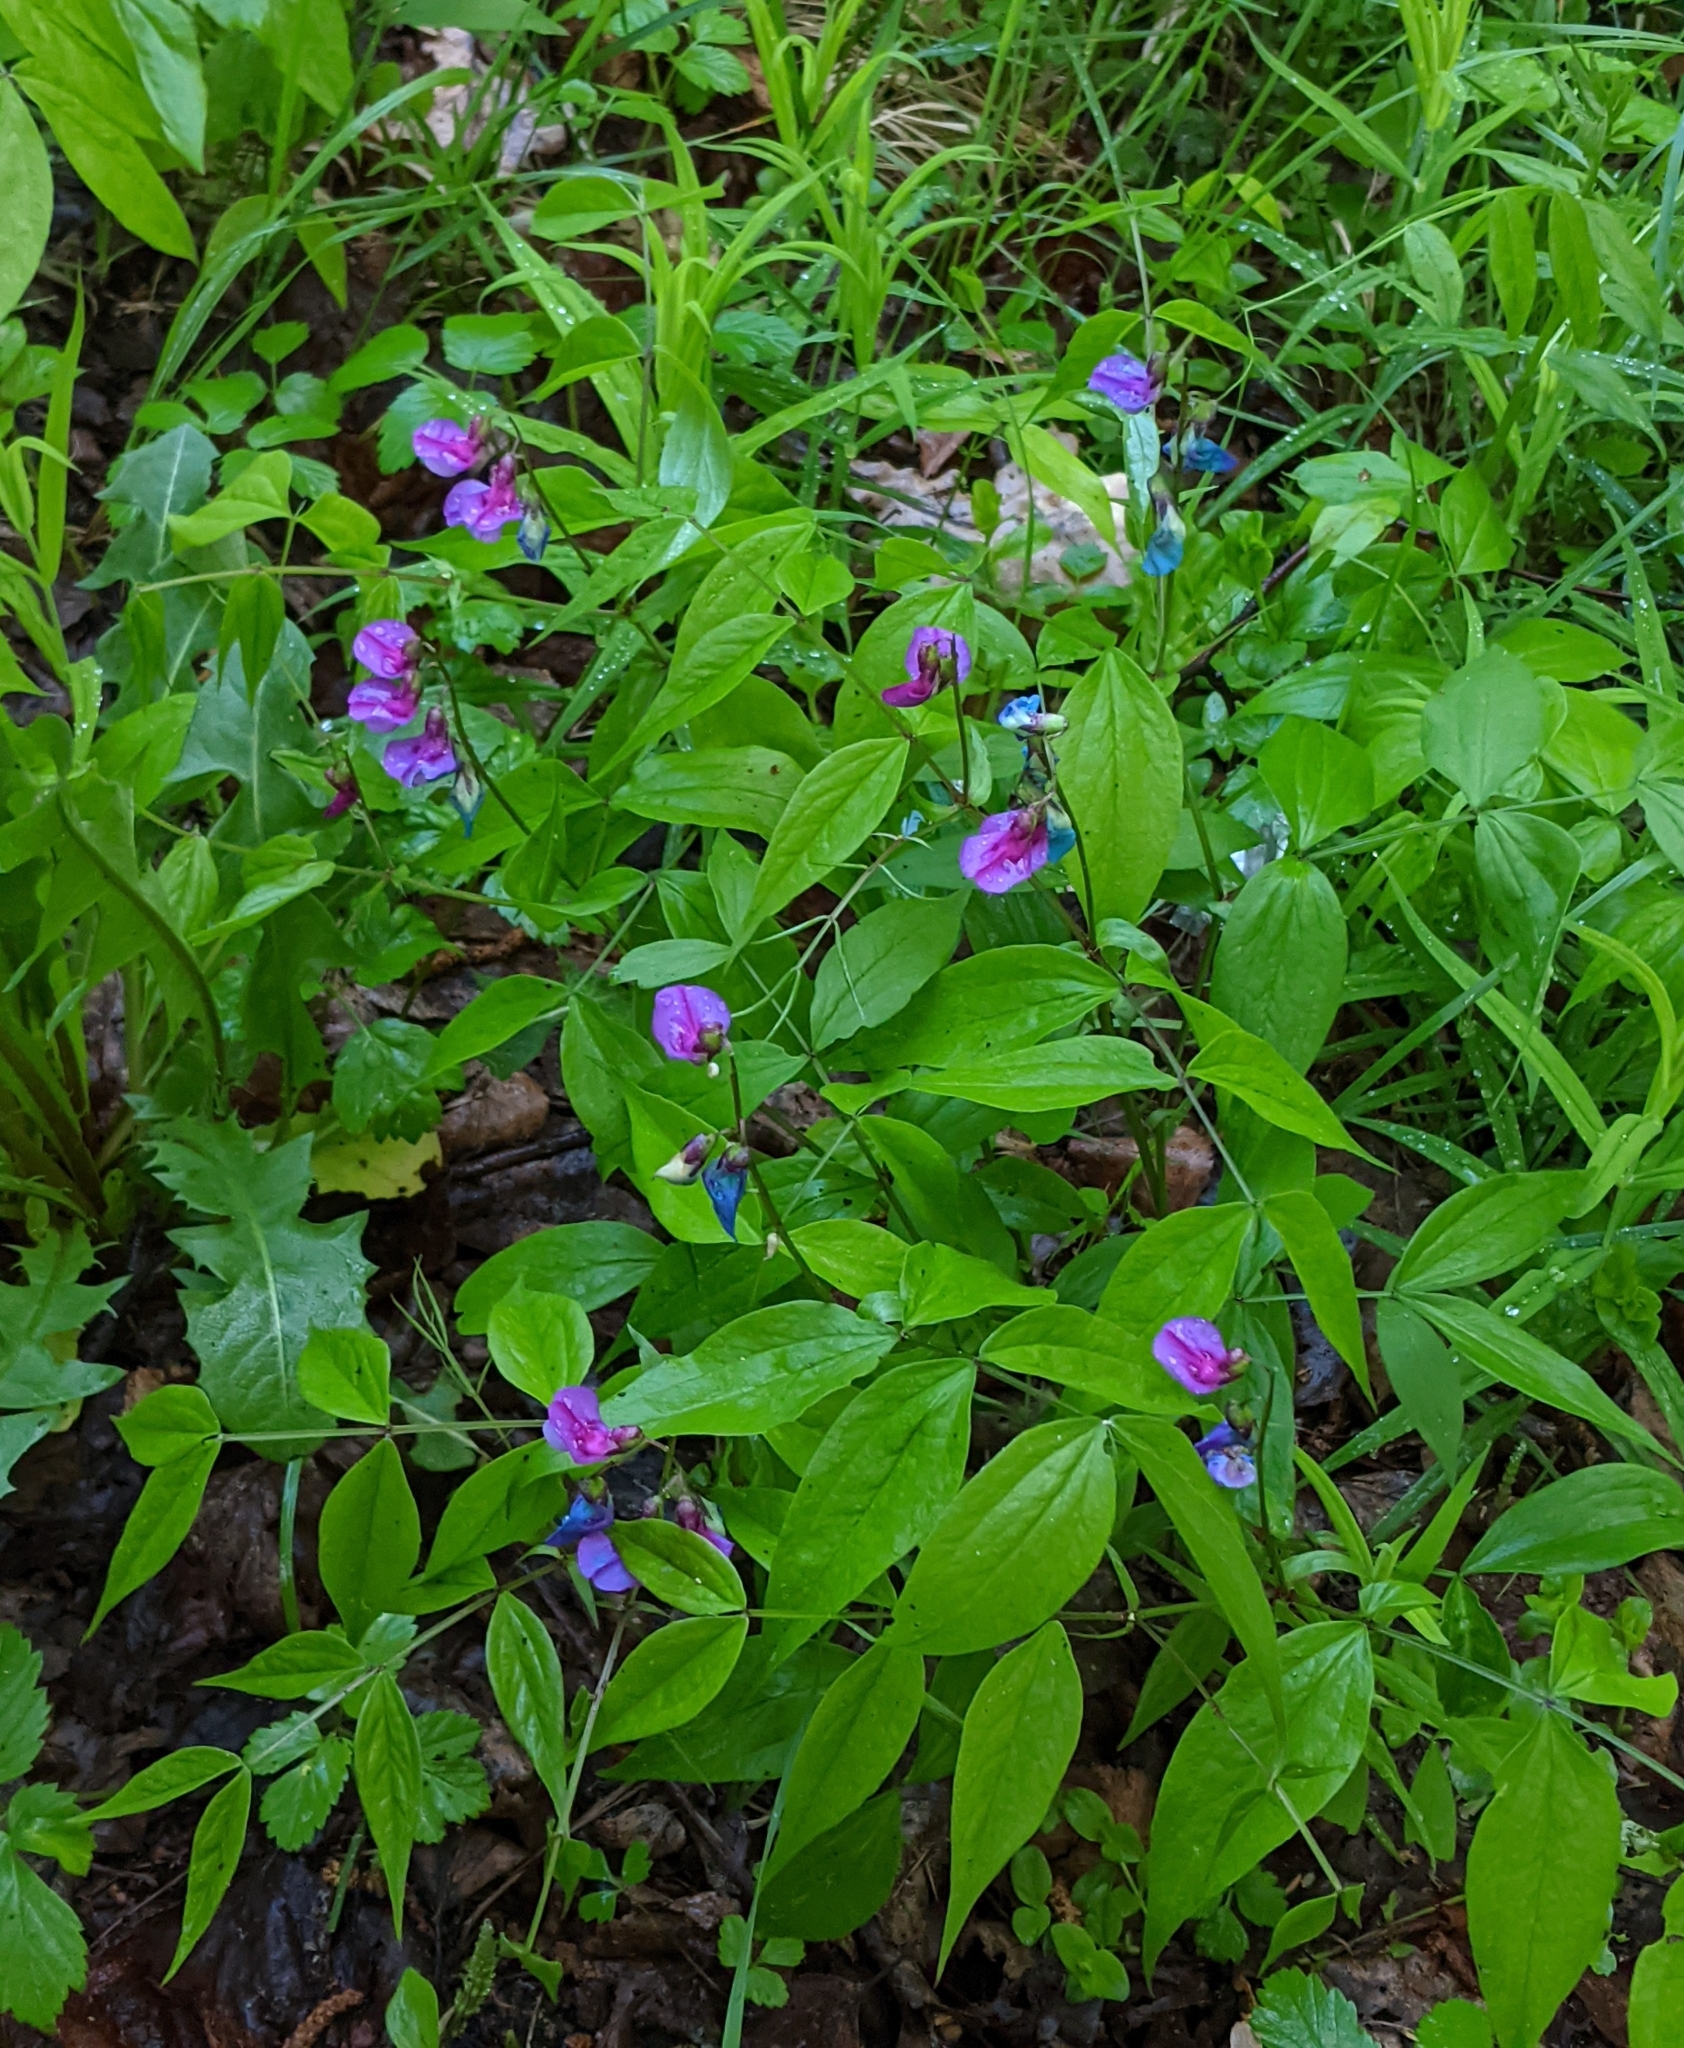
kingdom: Plantae
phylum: Tracheophyta
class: Magnoliopsida
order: Fabales
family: Fabaceae
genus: Lathyrus
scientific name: Lathyrus vernus
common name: Spring pea
